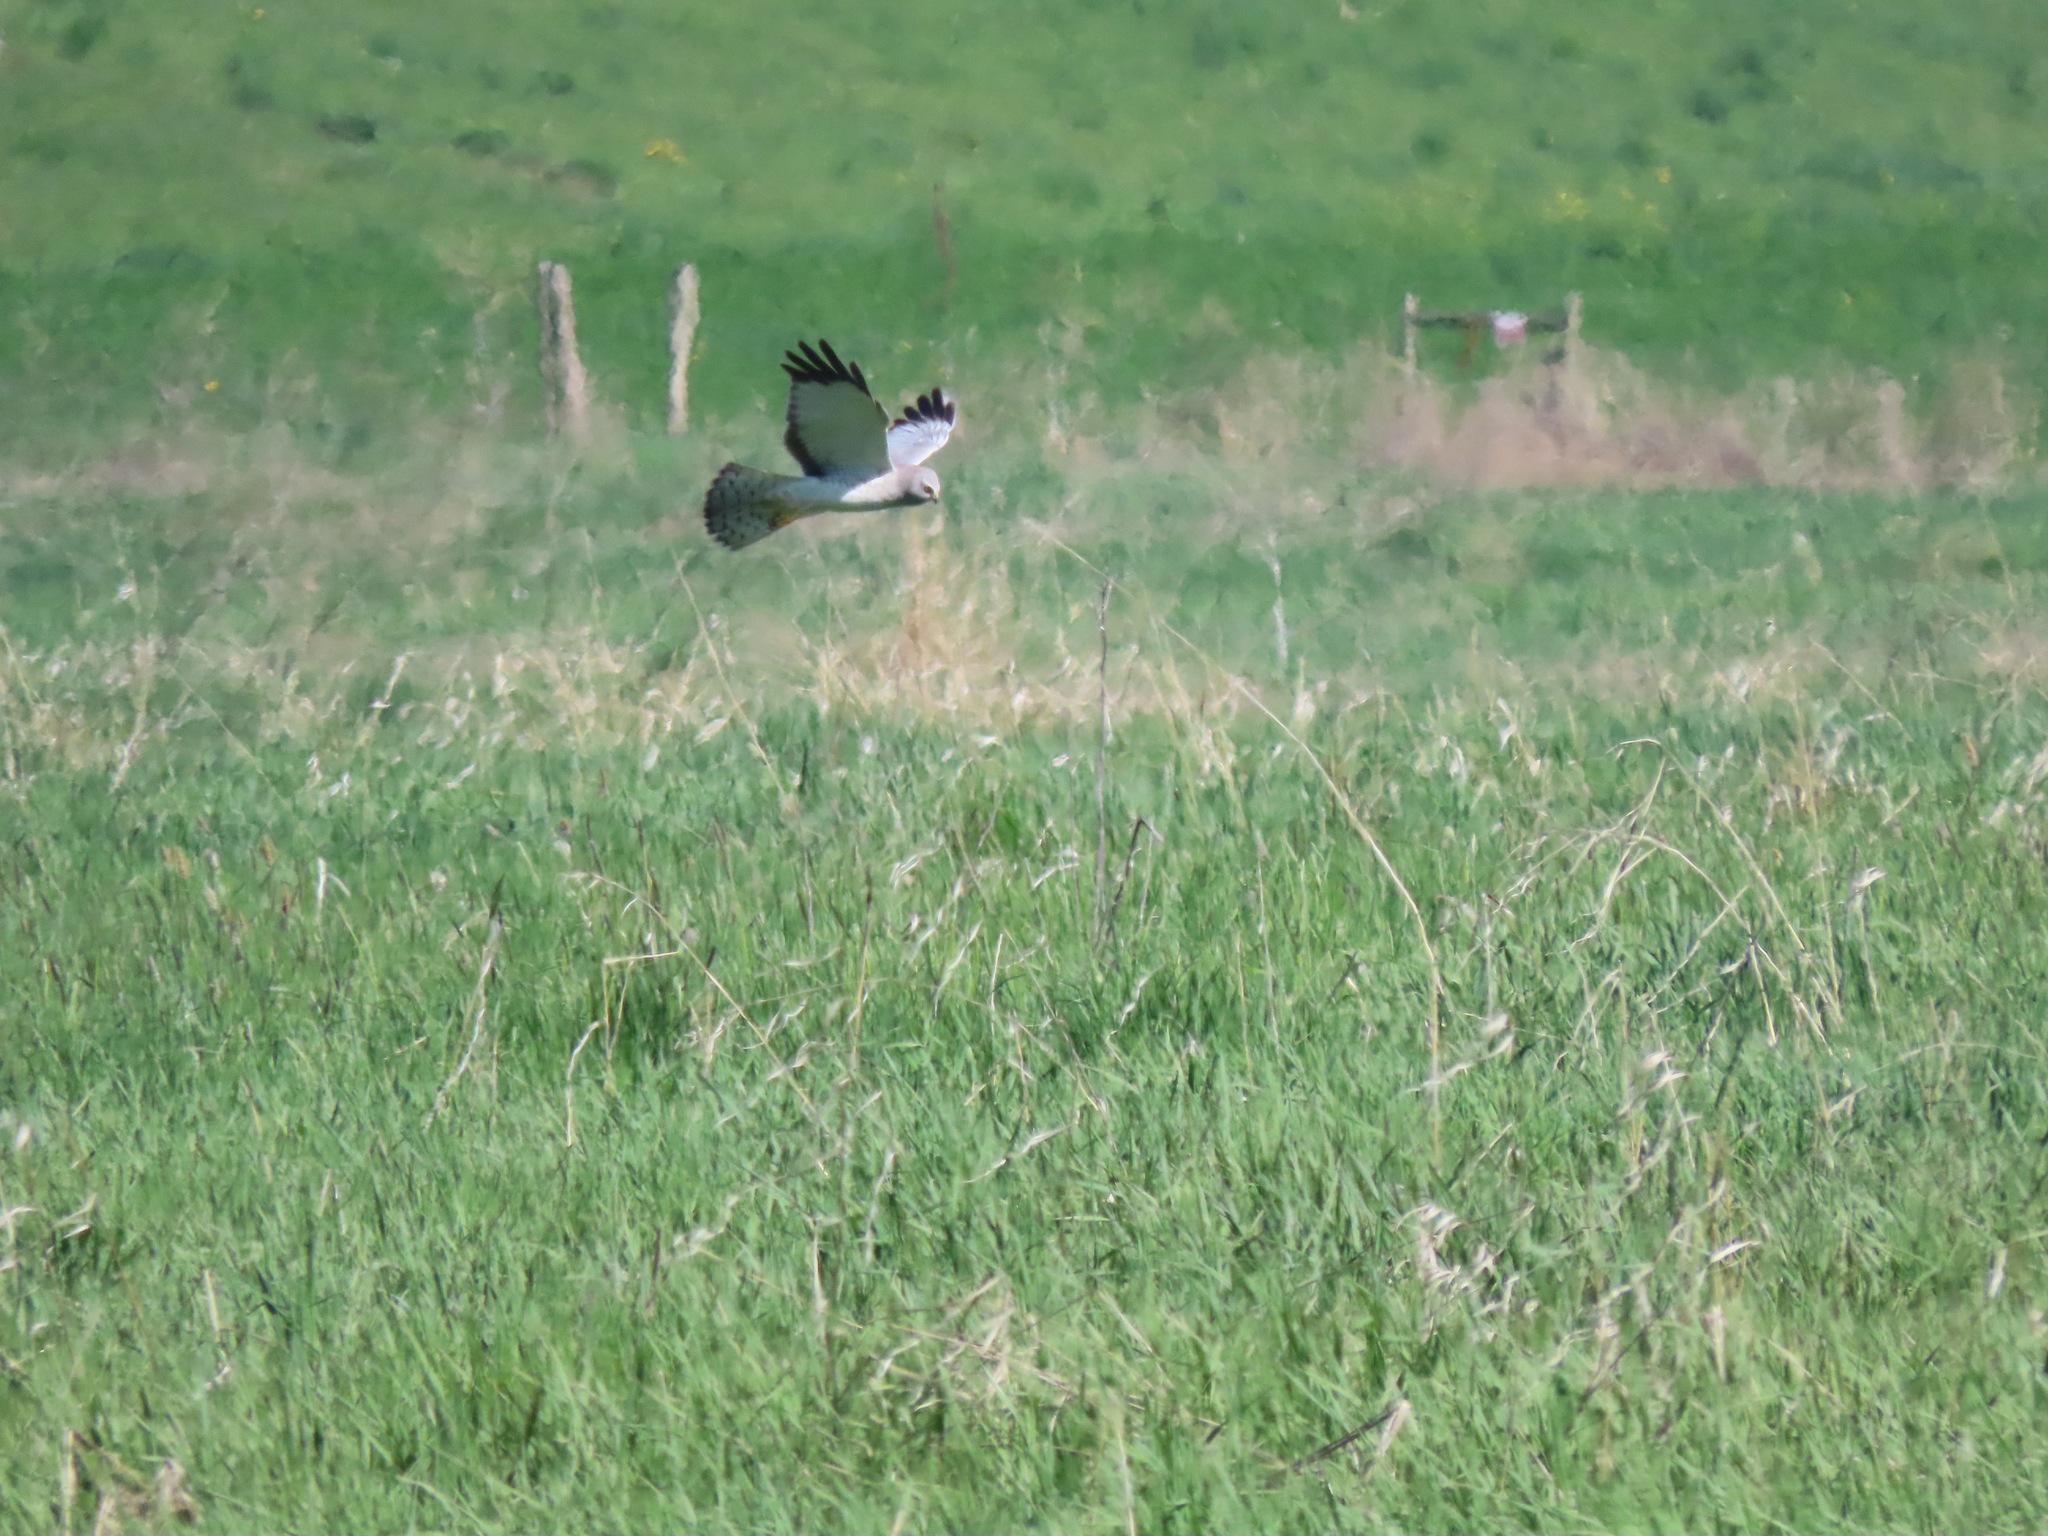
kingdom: Animalia
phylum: Chordata
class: Aves
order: Accipitriformes
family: Accipitridae
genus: Circus
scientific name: Circus cyaneus
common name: Hen harrier
